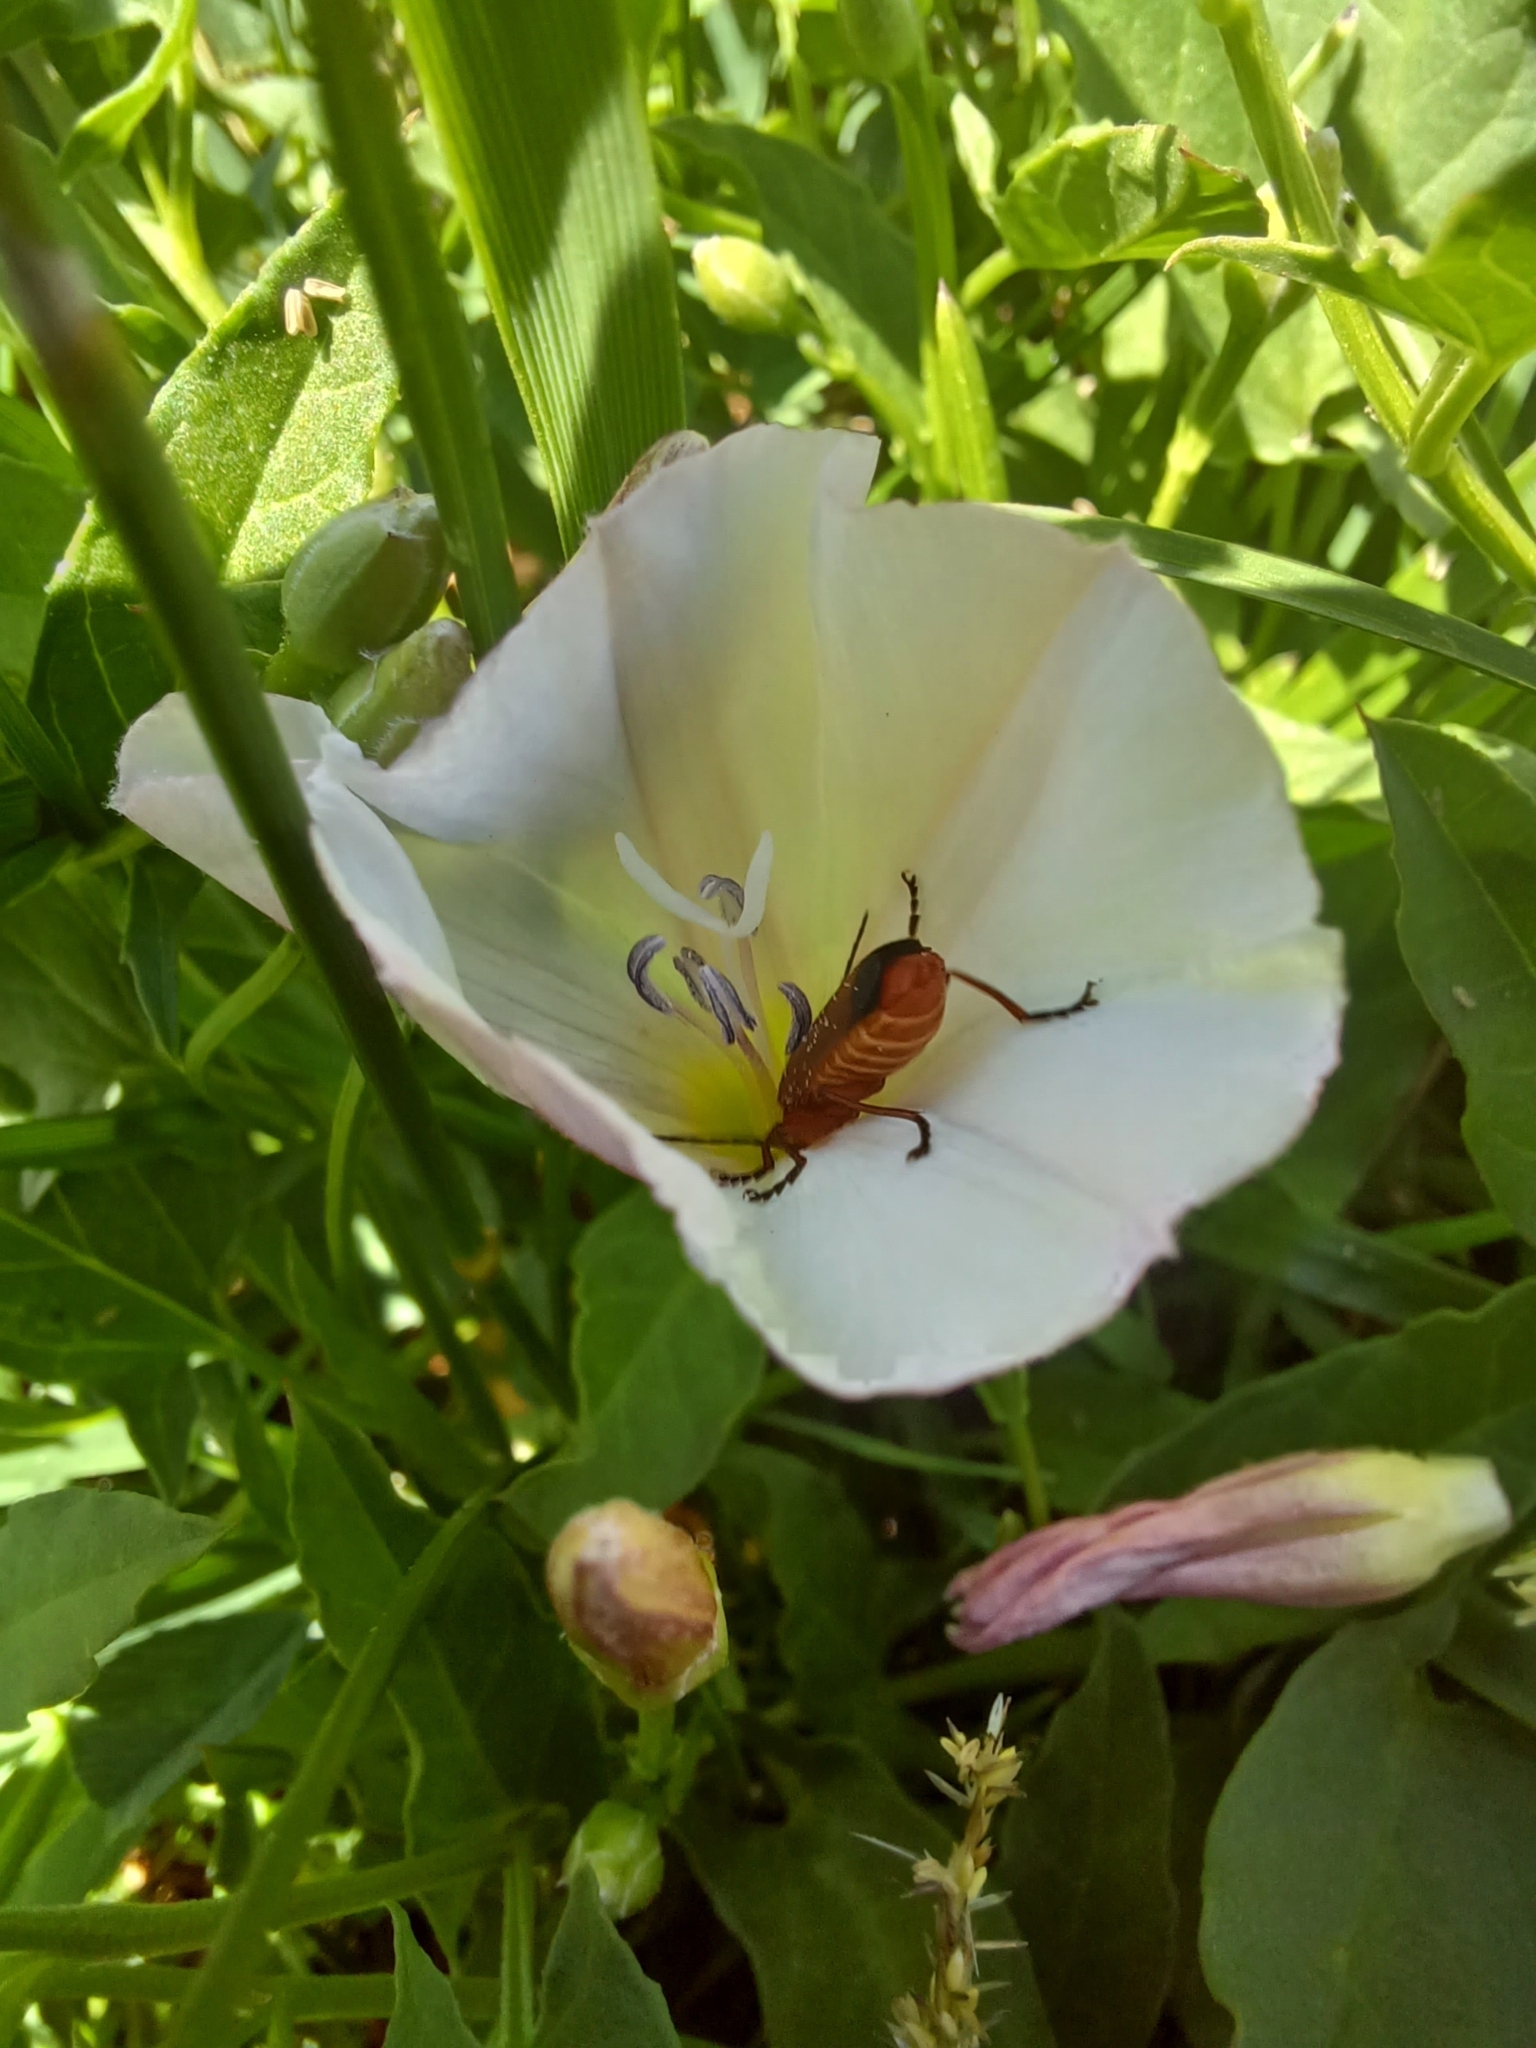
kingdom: Animalia
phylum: Arthropoda
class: Insecta
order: Coleoptera
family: Cantharidae
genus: Rhagonycha
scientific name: Rhagonycha fulva
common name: Common red soldier beetle
